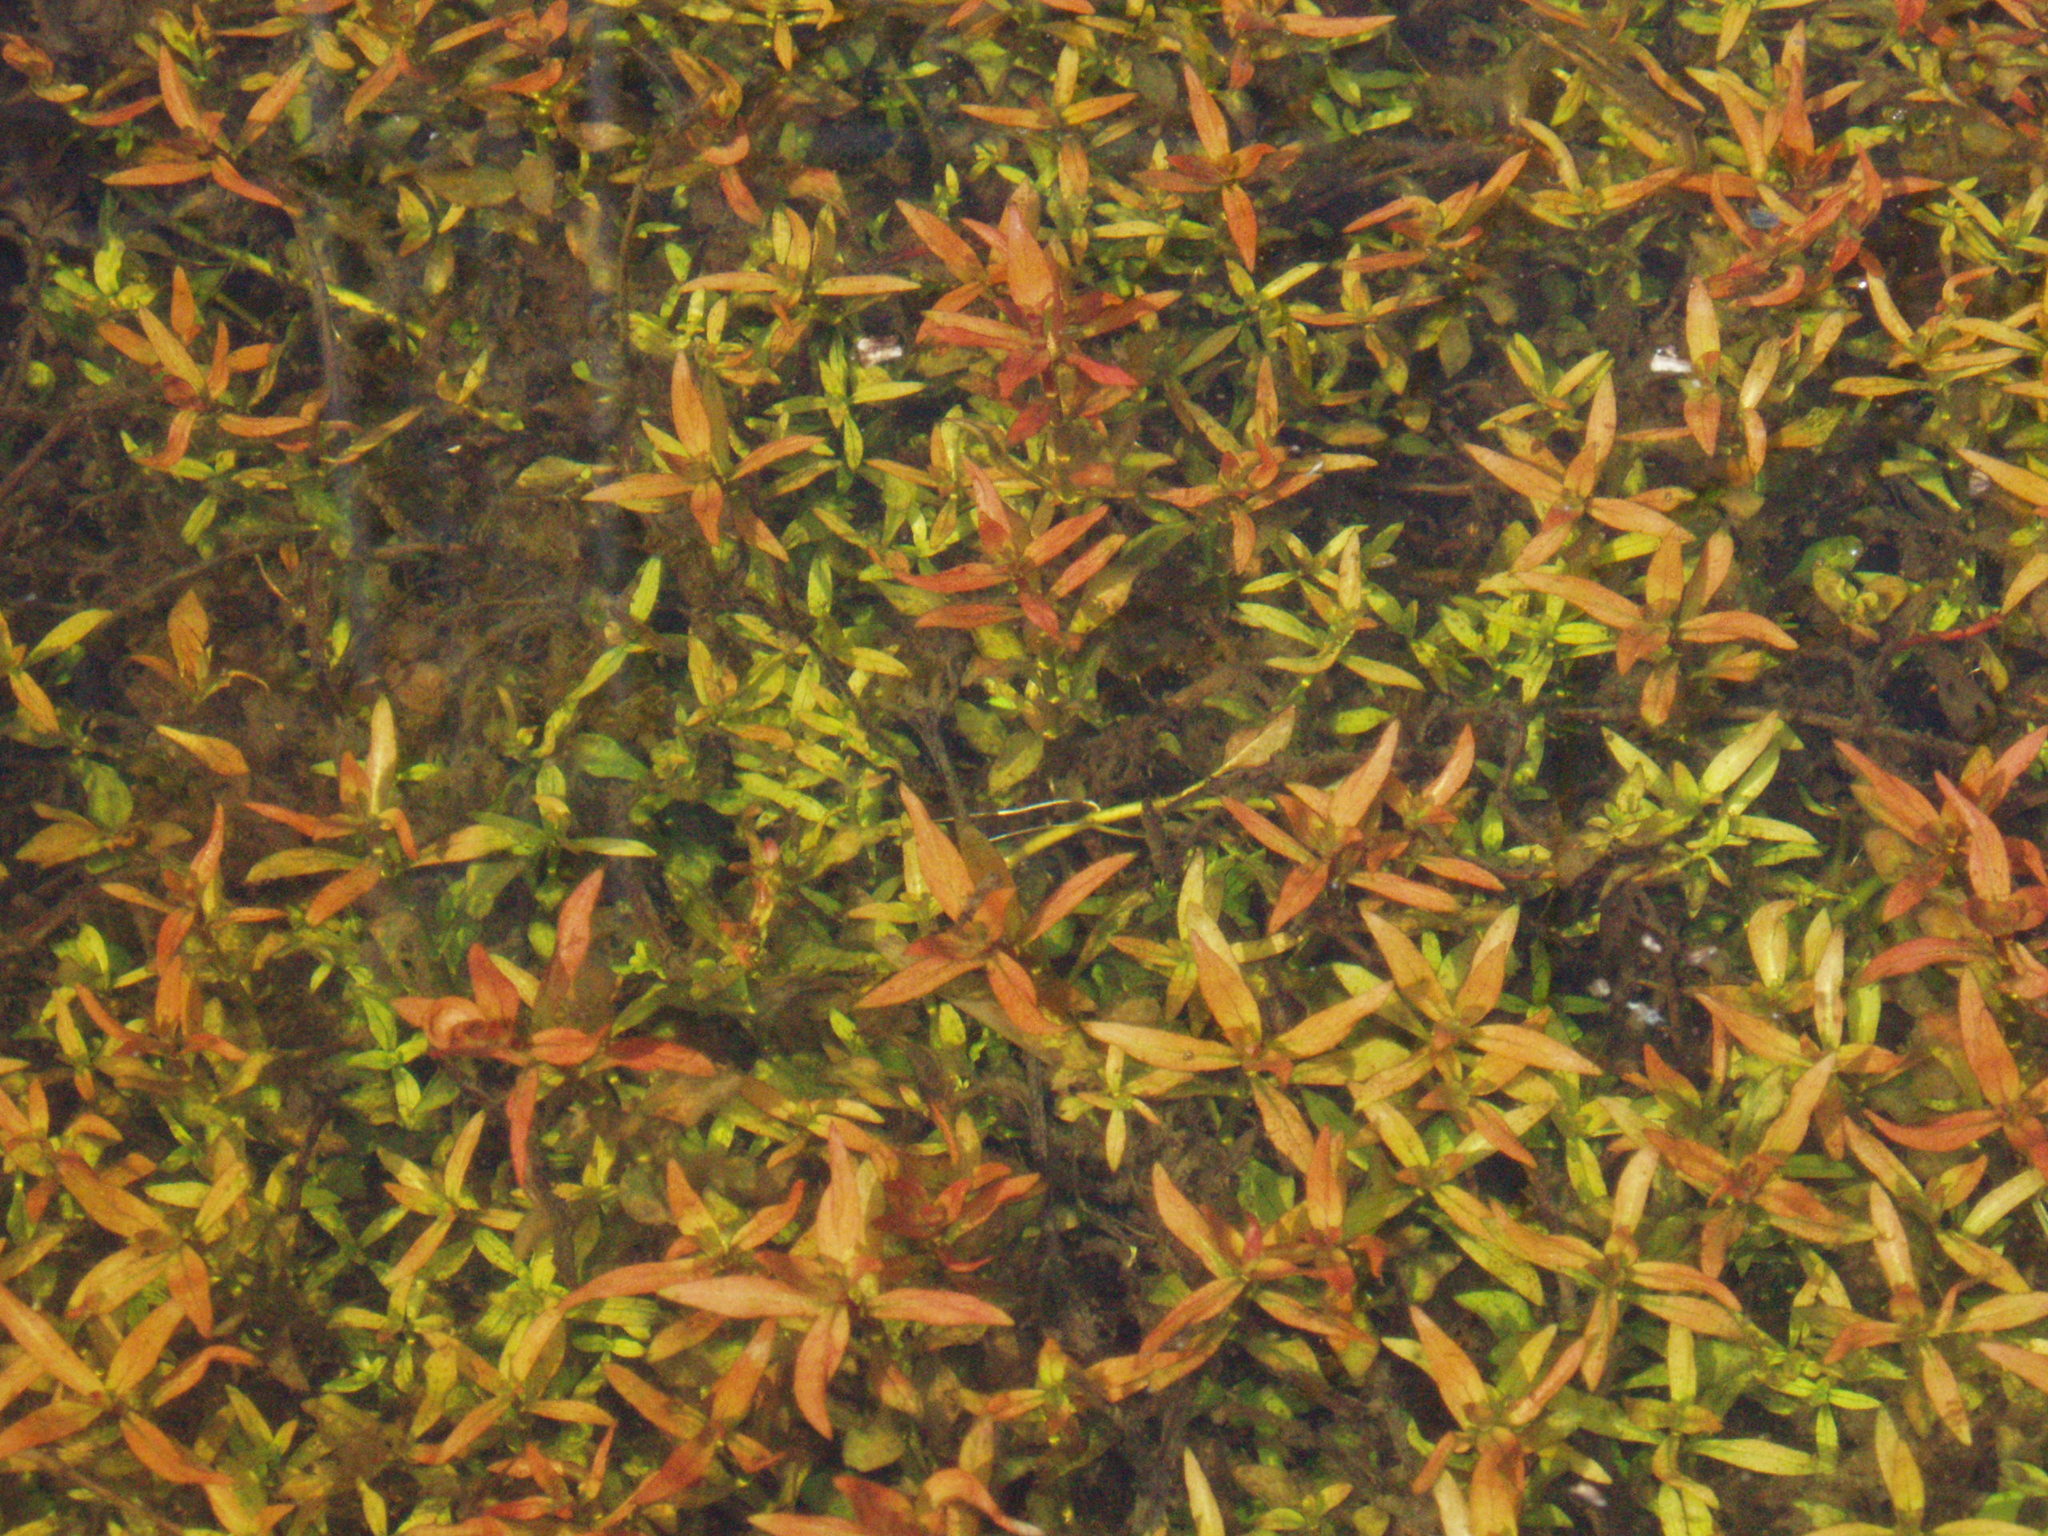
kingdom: Plantae
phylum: Tracheophyta
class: Magnoliopsida
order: Myrtales
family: Onagraceae
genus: Ludwigia
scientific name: Ludwigia palustris
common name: Hampshire-purslane
